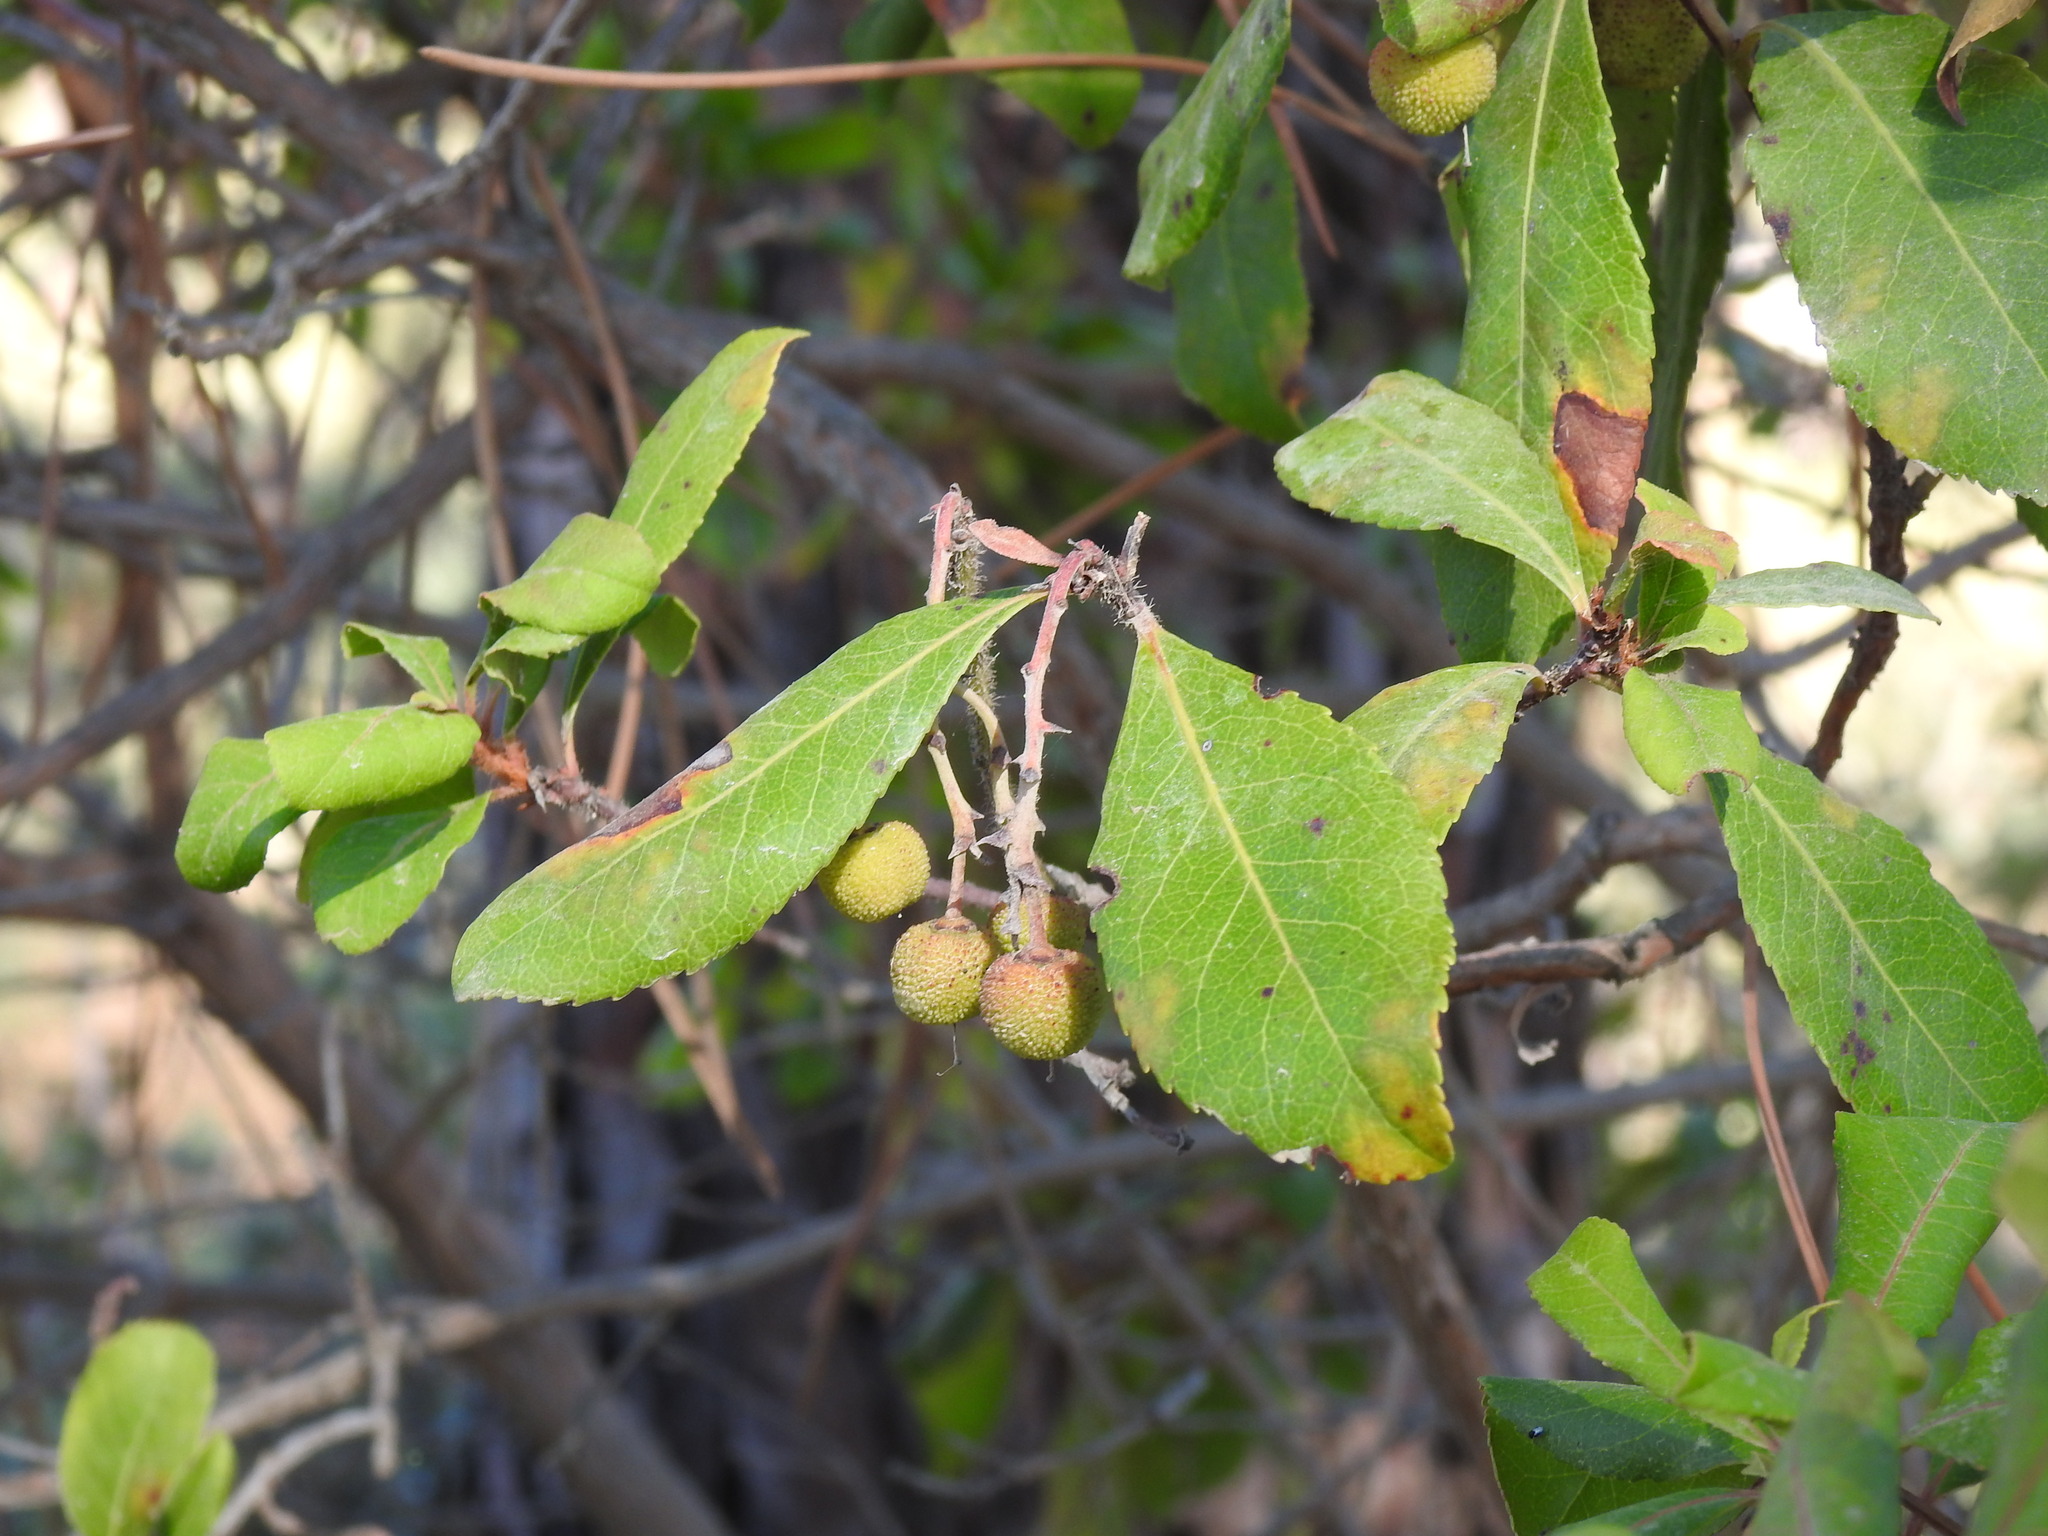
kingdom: Plantae
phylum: Tracheophyta
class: Magnoliopsida
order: Ericales
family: Ericaceae
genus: Arbutus
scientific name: Arbutus unedo
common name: Strawberry-tree
